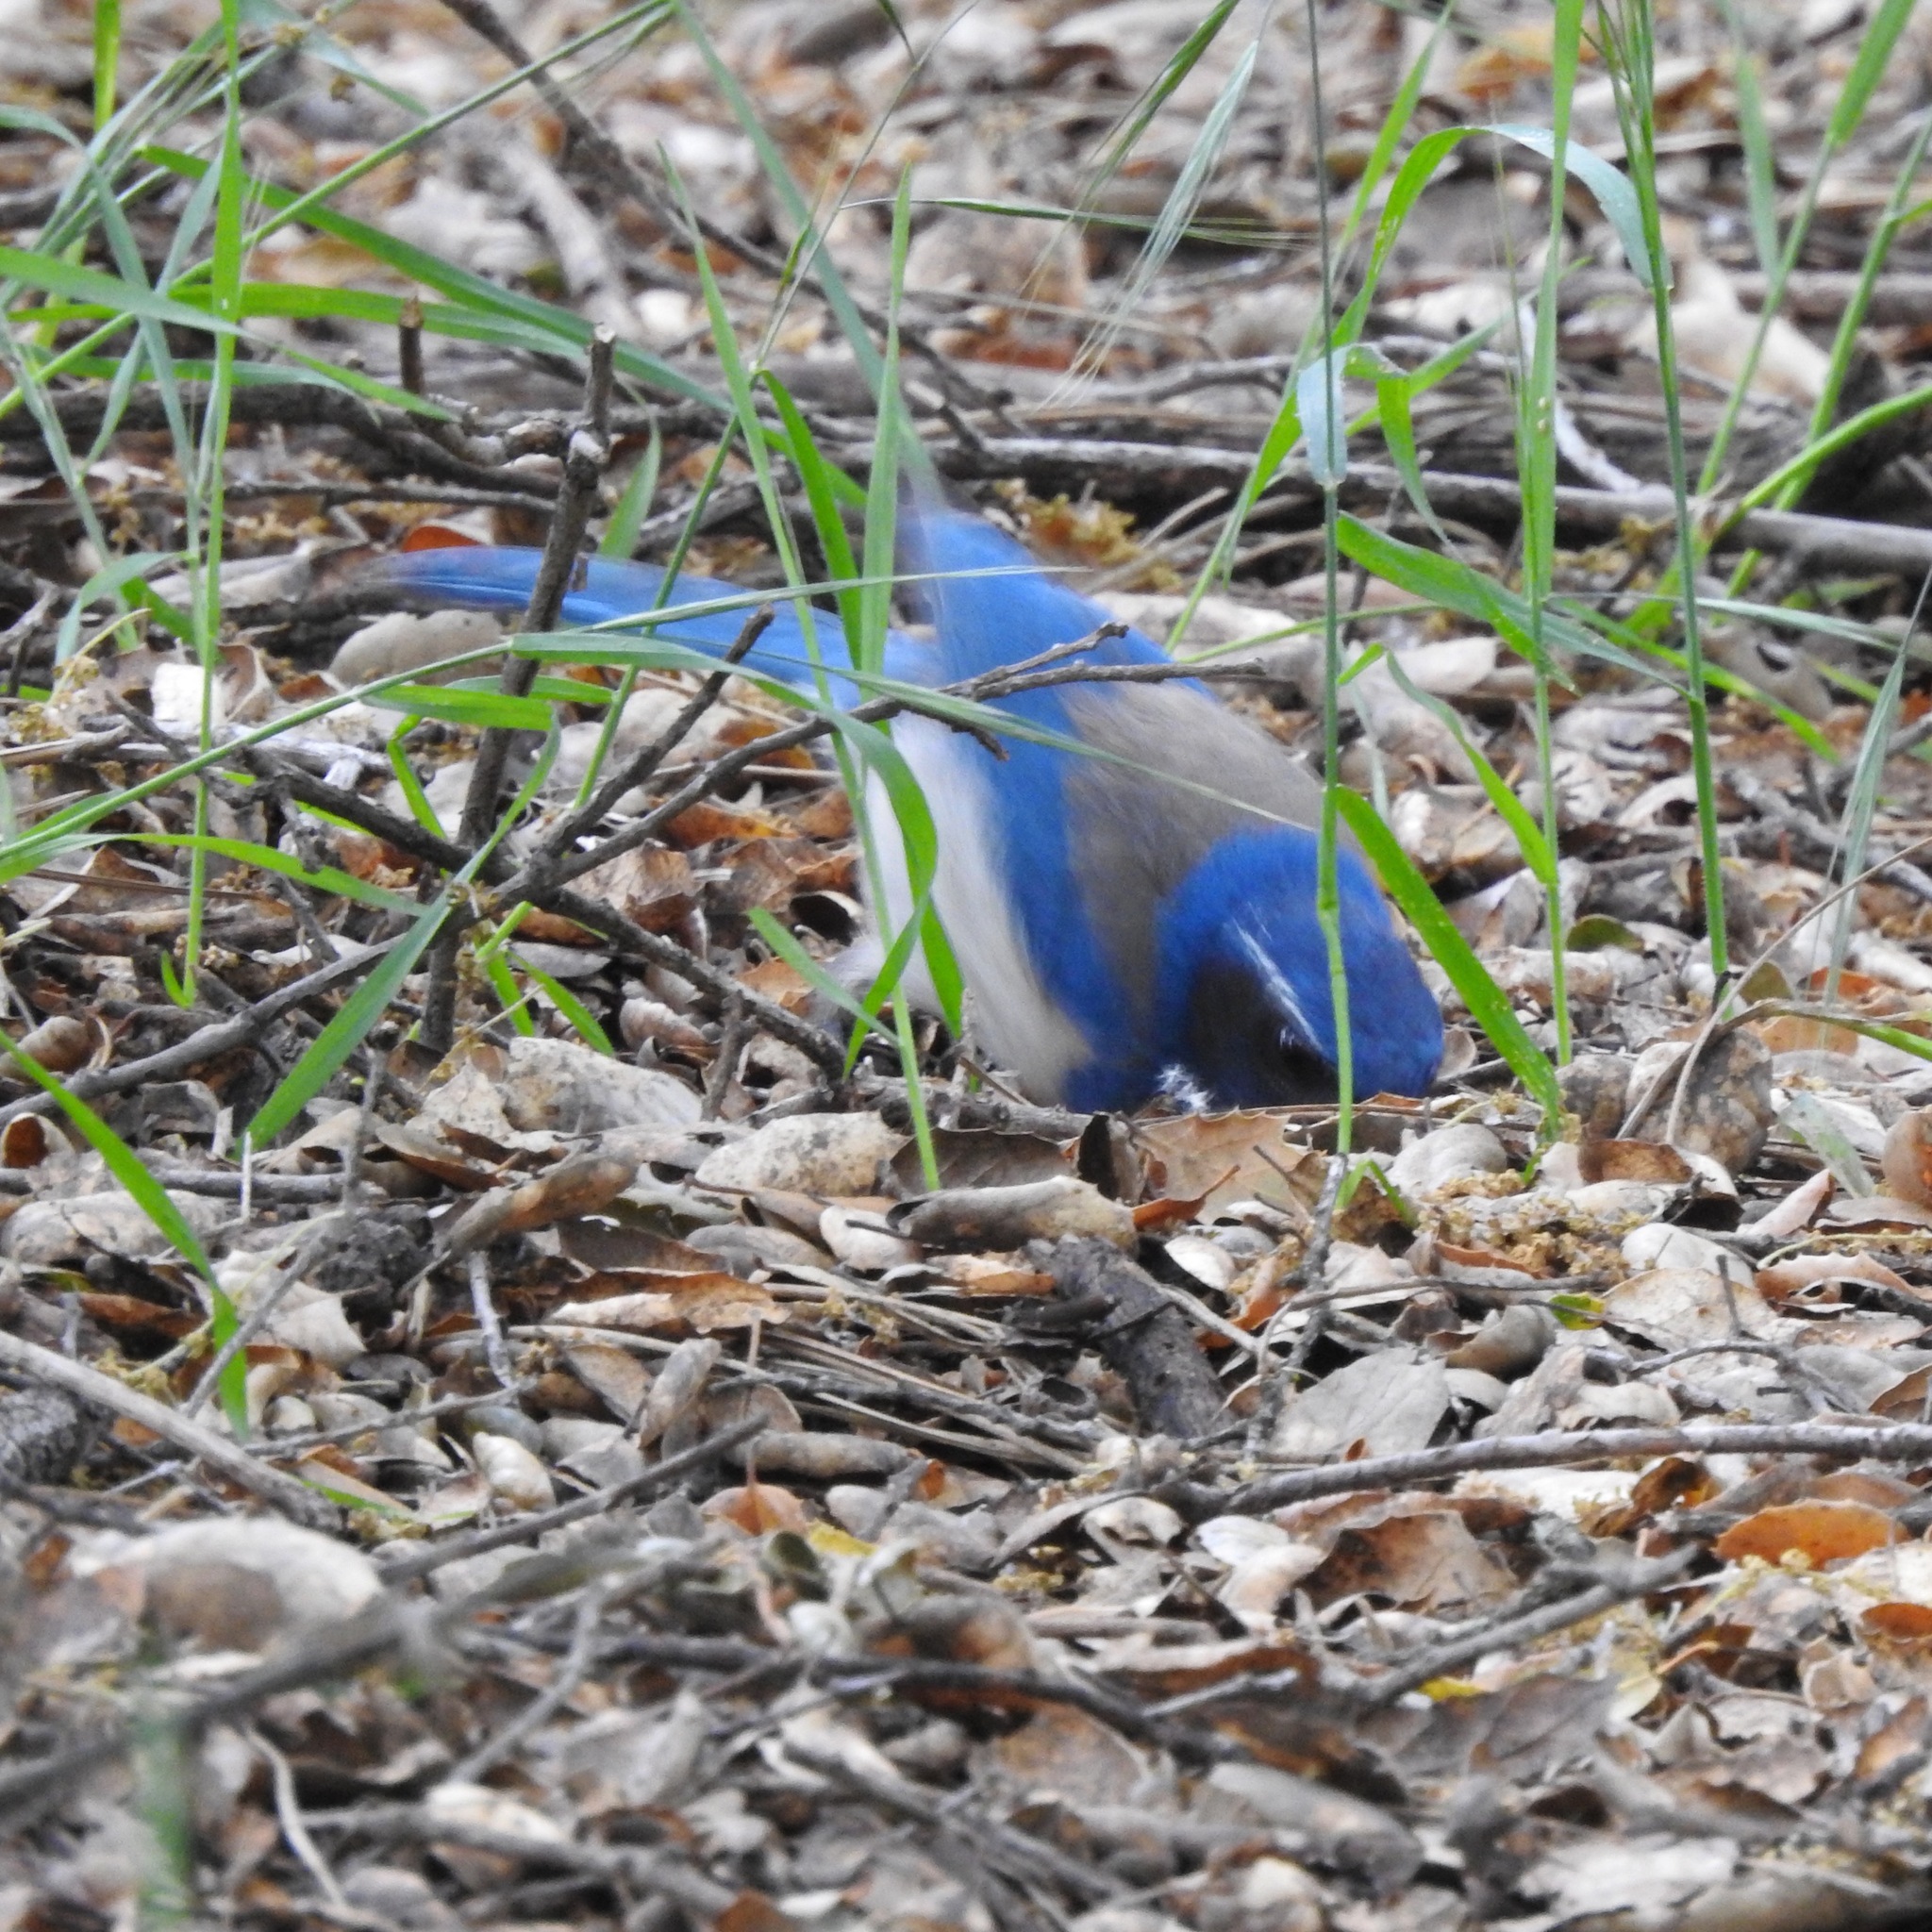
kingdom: Animalia
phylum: Chordata
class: Aves
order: Passeriformes
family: Corvidae
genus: Aphelocoma
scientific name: Aphelocoma californica
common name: California scrub-jay
